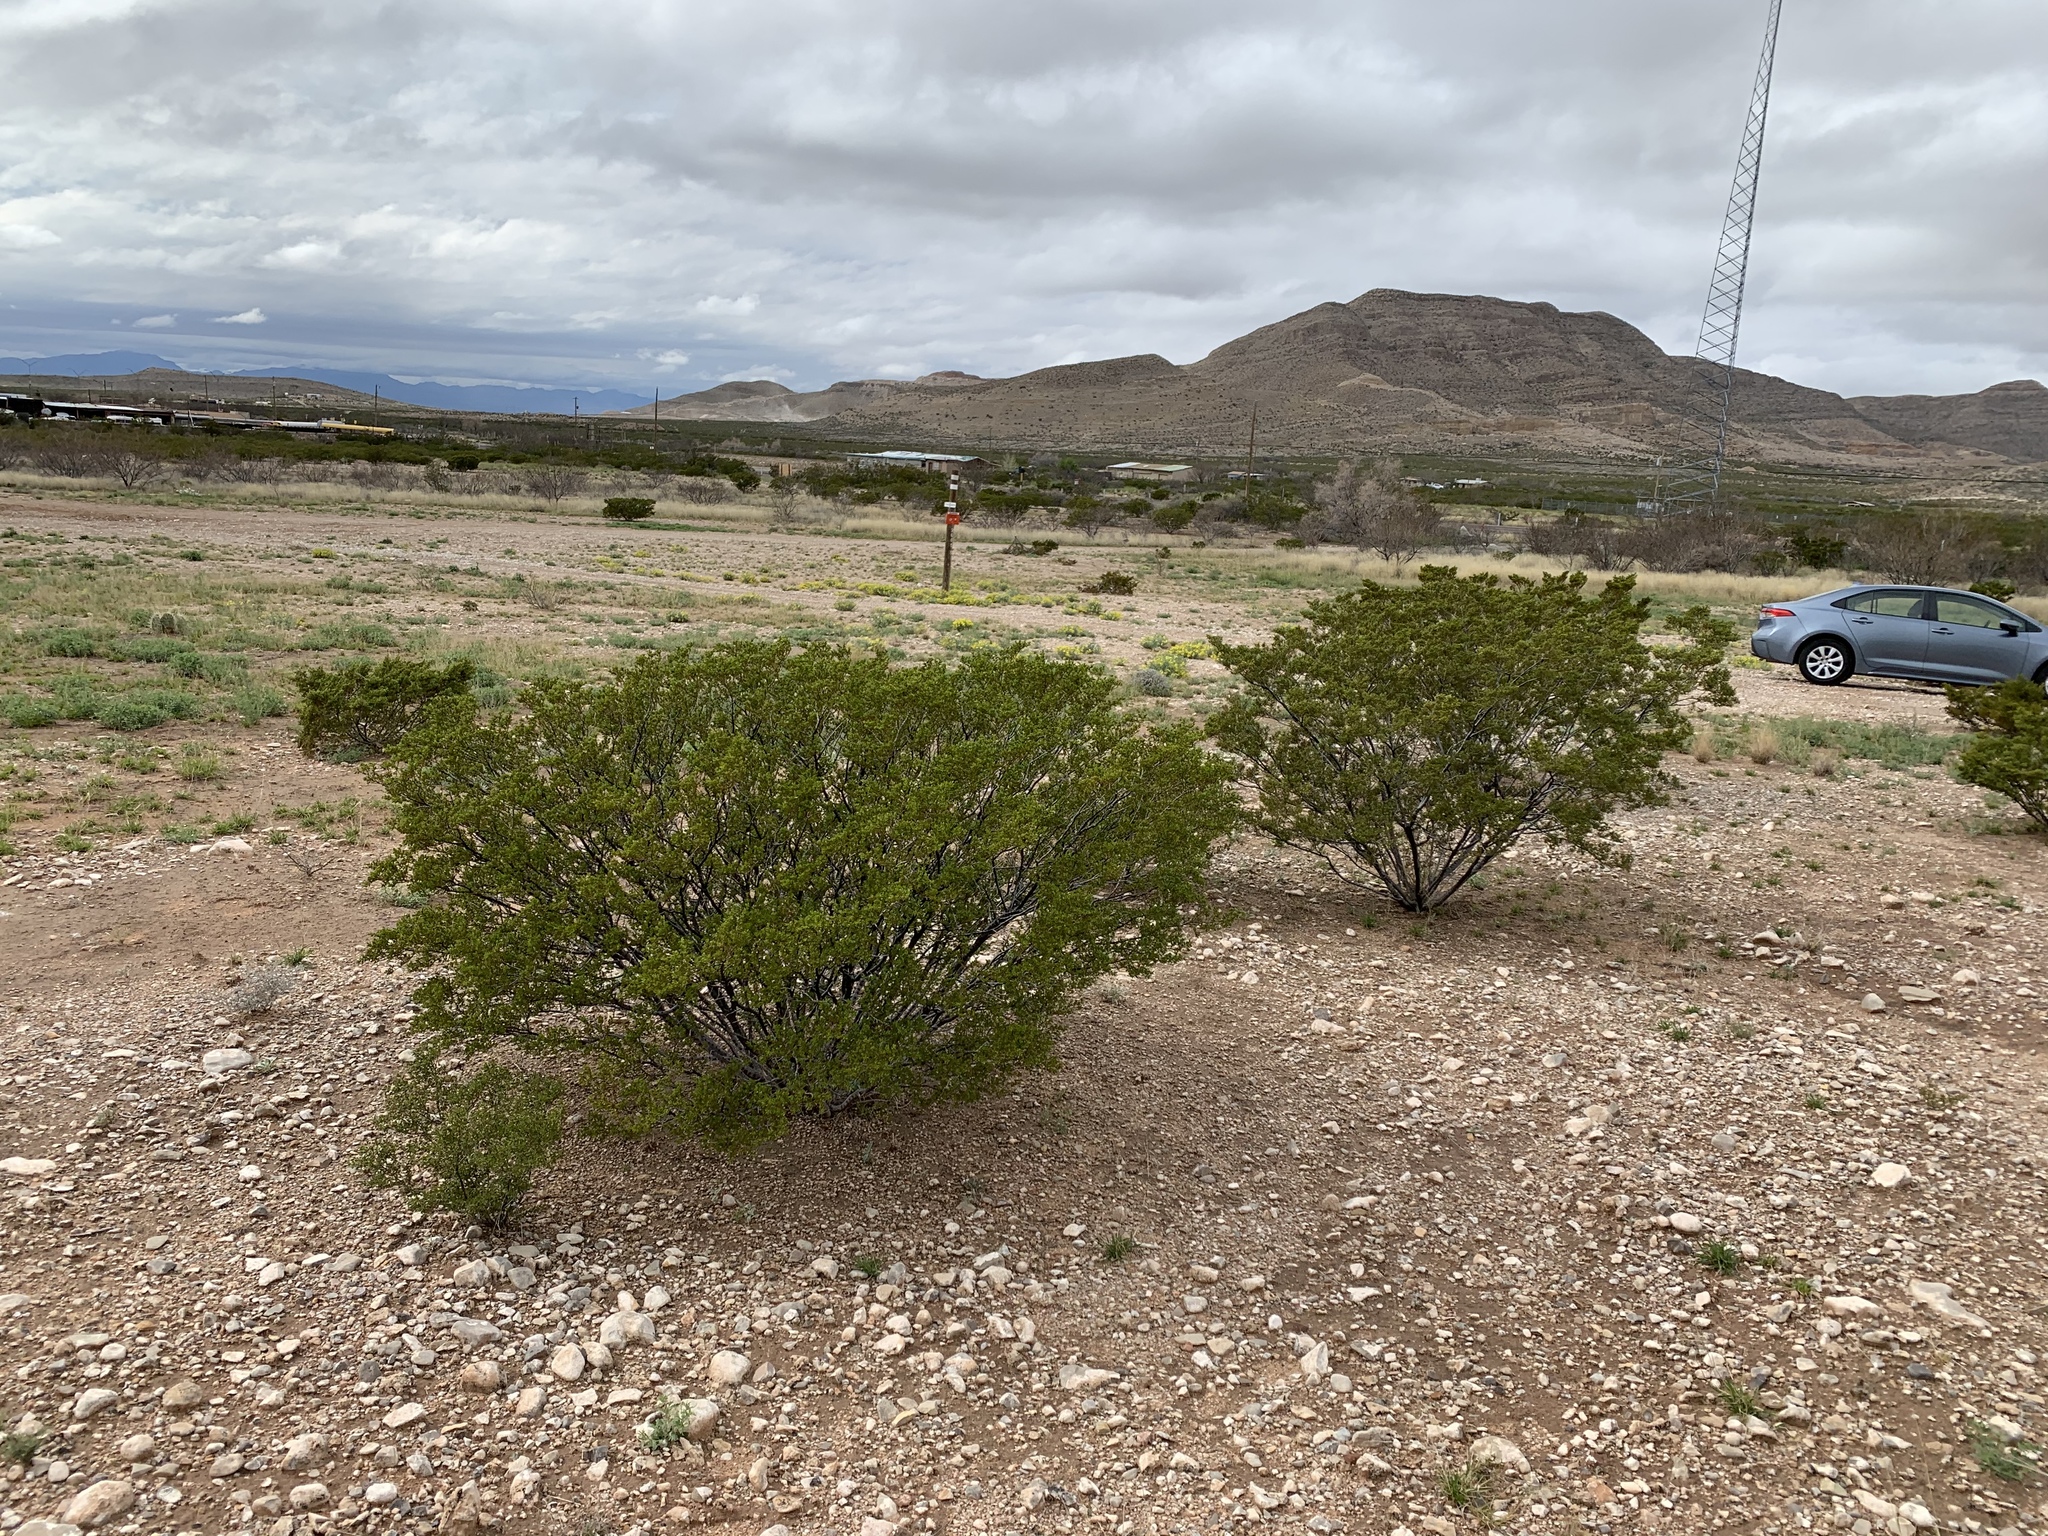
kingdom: Plantae
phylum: Tracheophyta
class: Magnoliopsida
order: Zygophyllales
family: Zygophyllaceae
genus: Larrea
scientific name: Larrea tridentata
